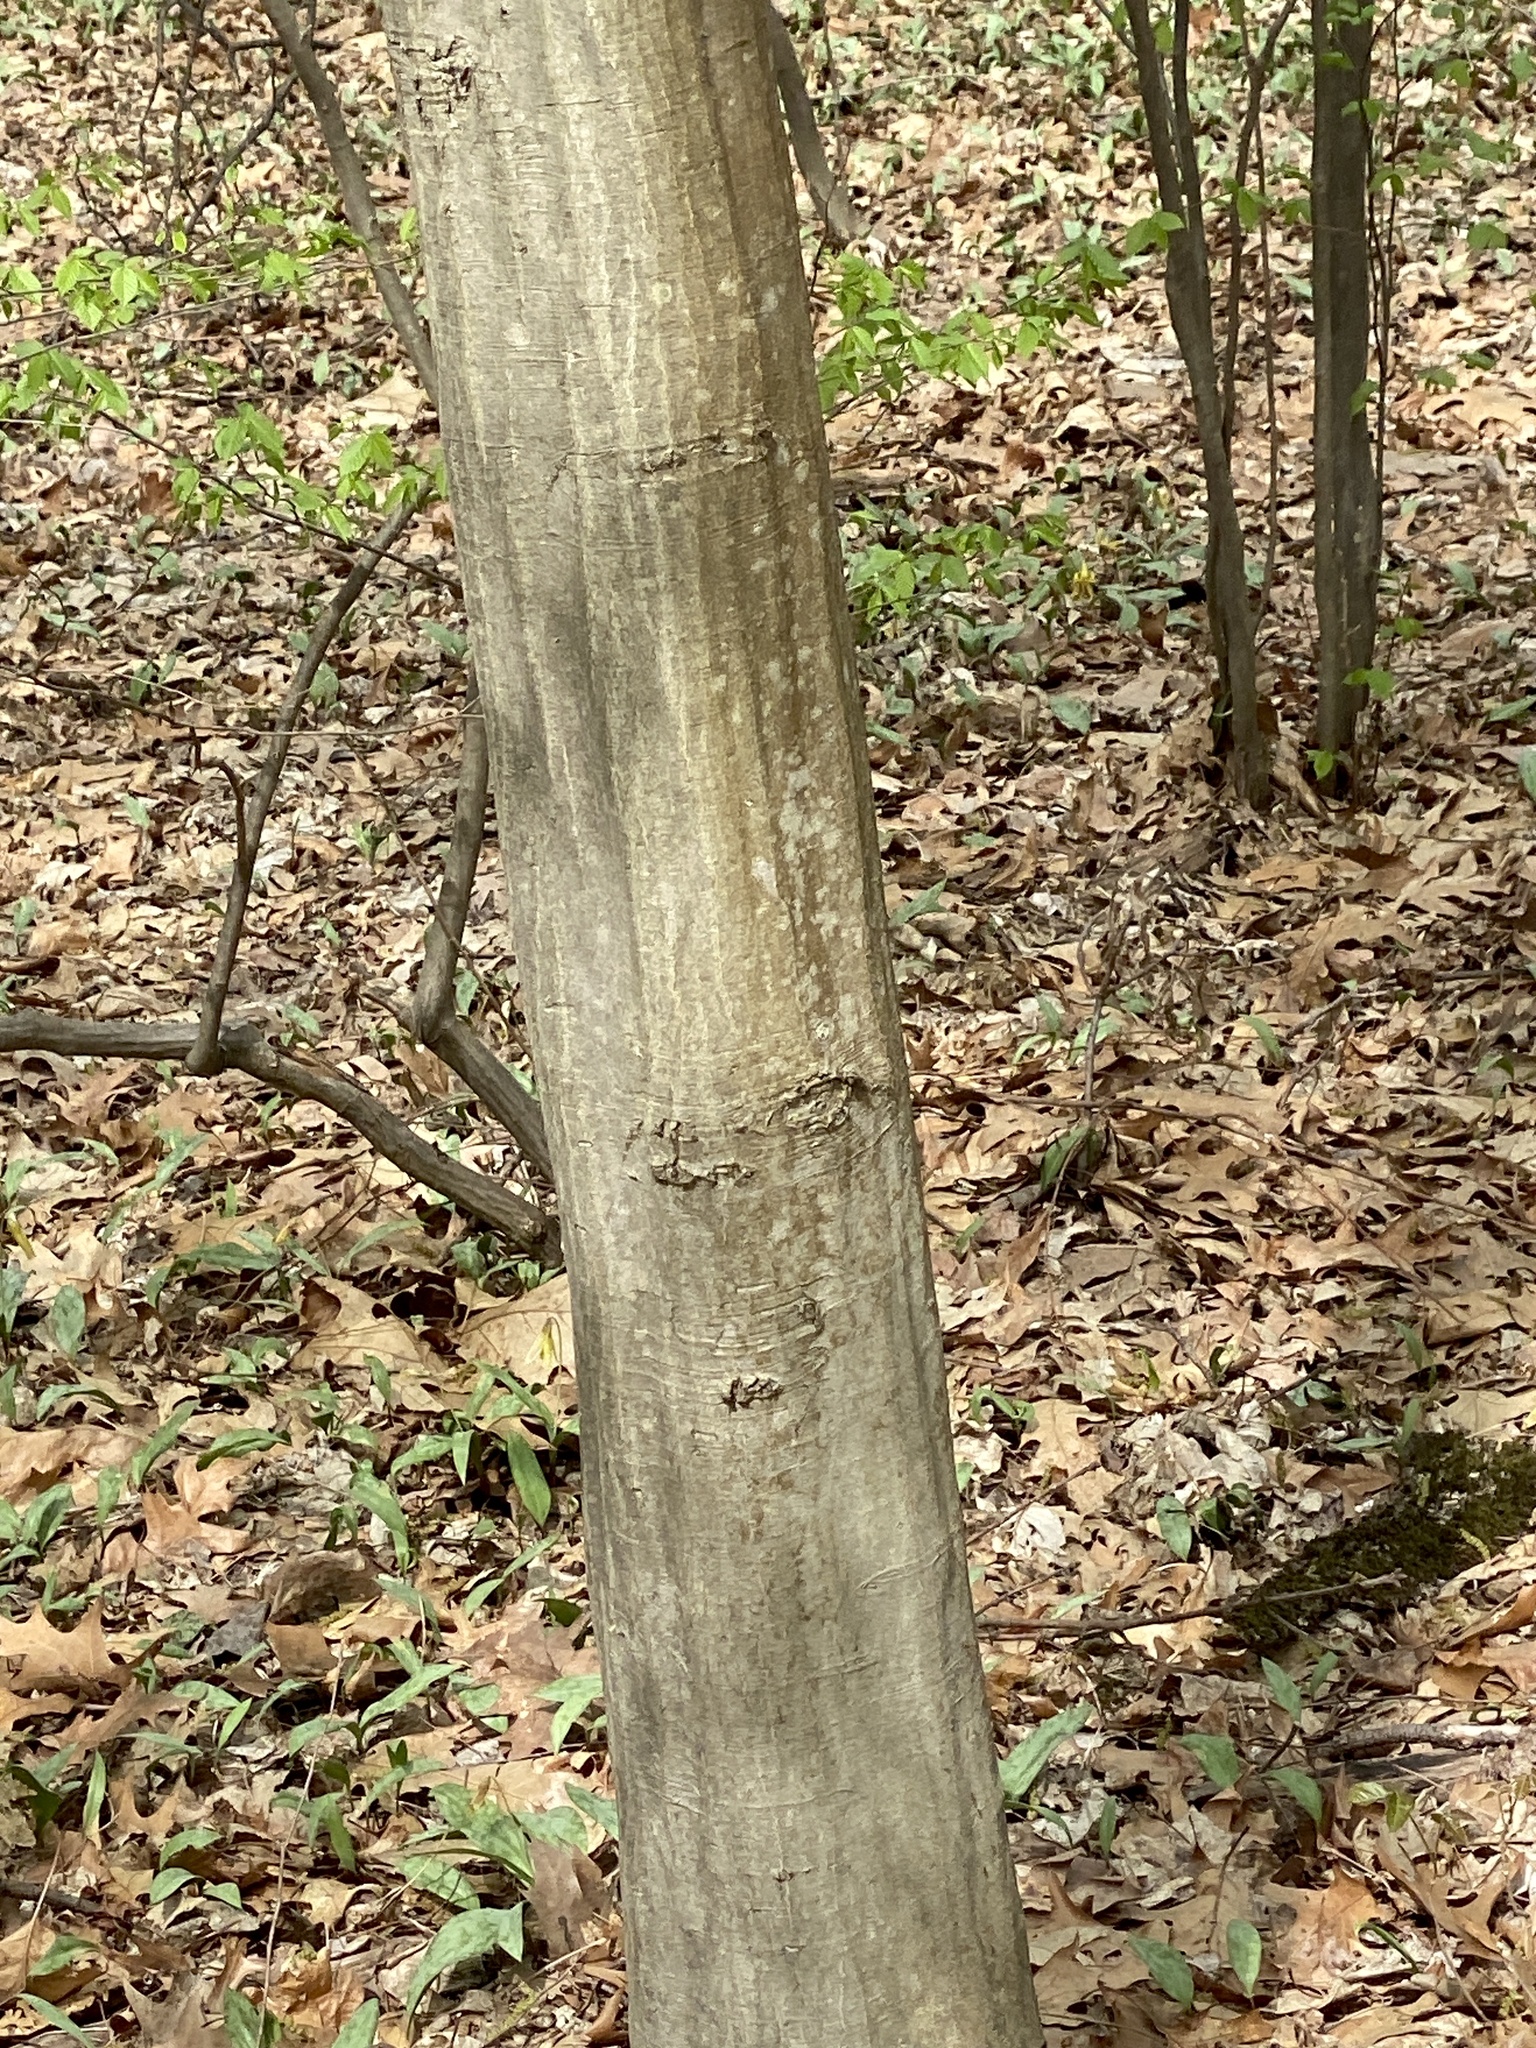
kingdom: Plantae
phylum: Tracheophyta
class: Magnoliopsida
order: Fagales
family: Betulaceae
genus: Carpinus
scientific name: Carpinus caroliniana
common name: American hornbeam
